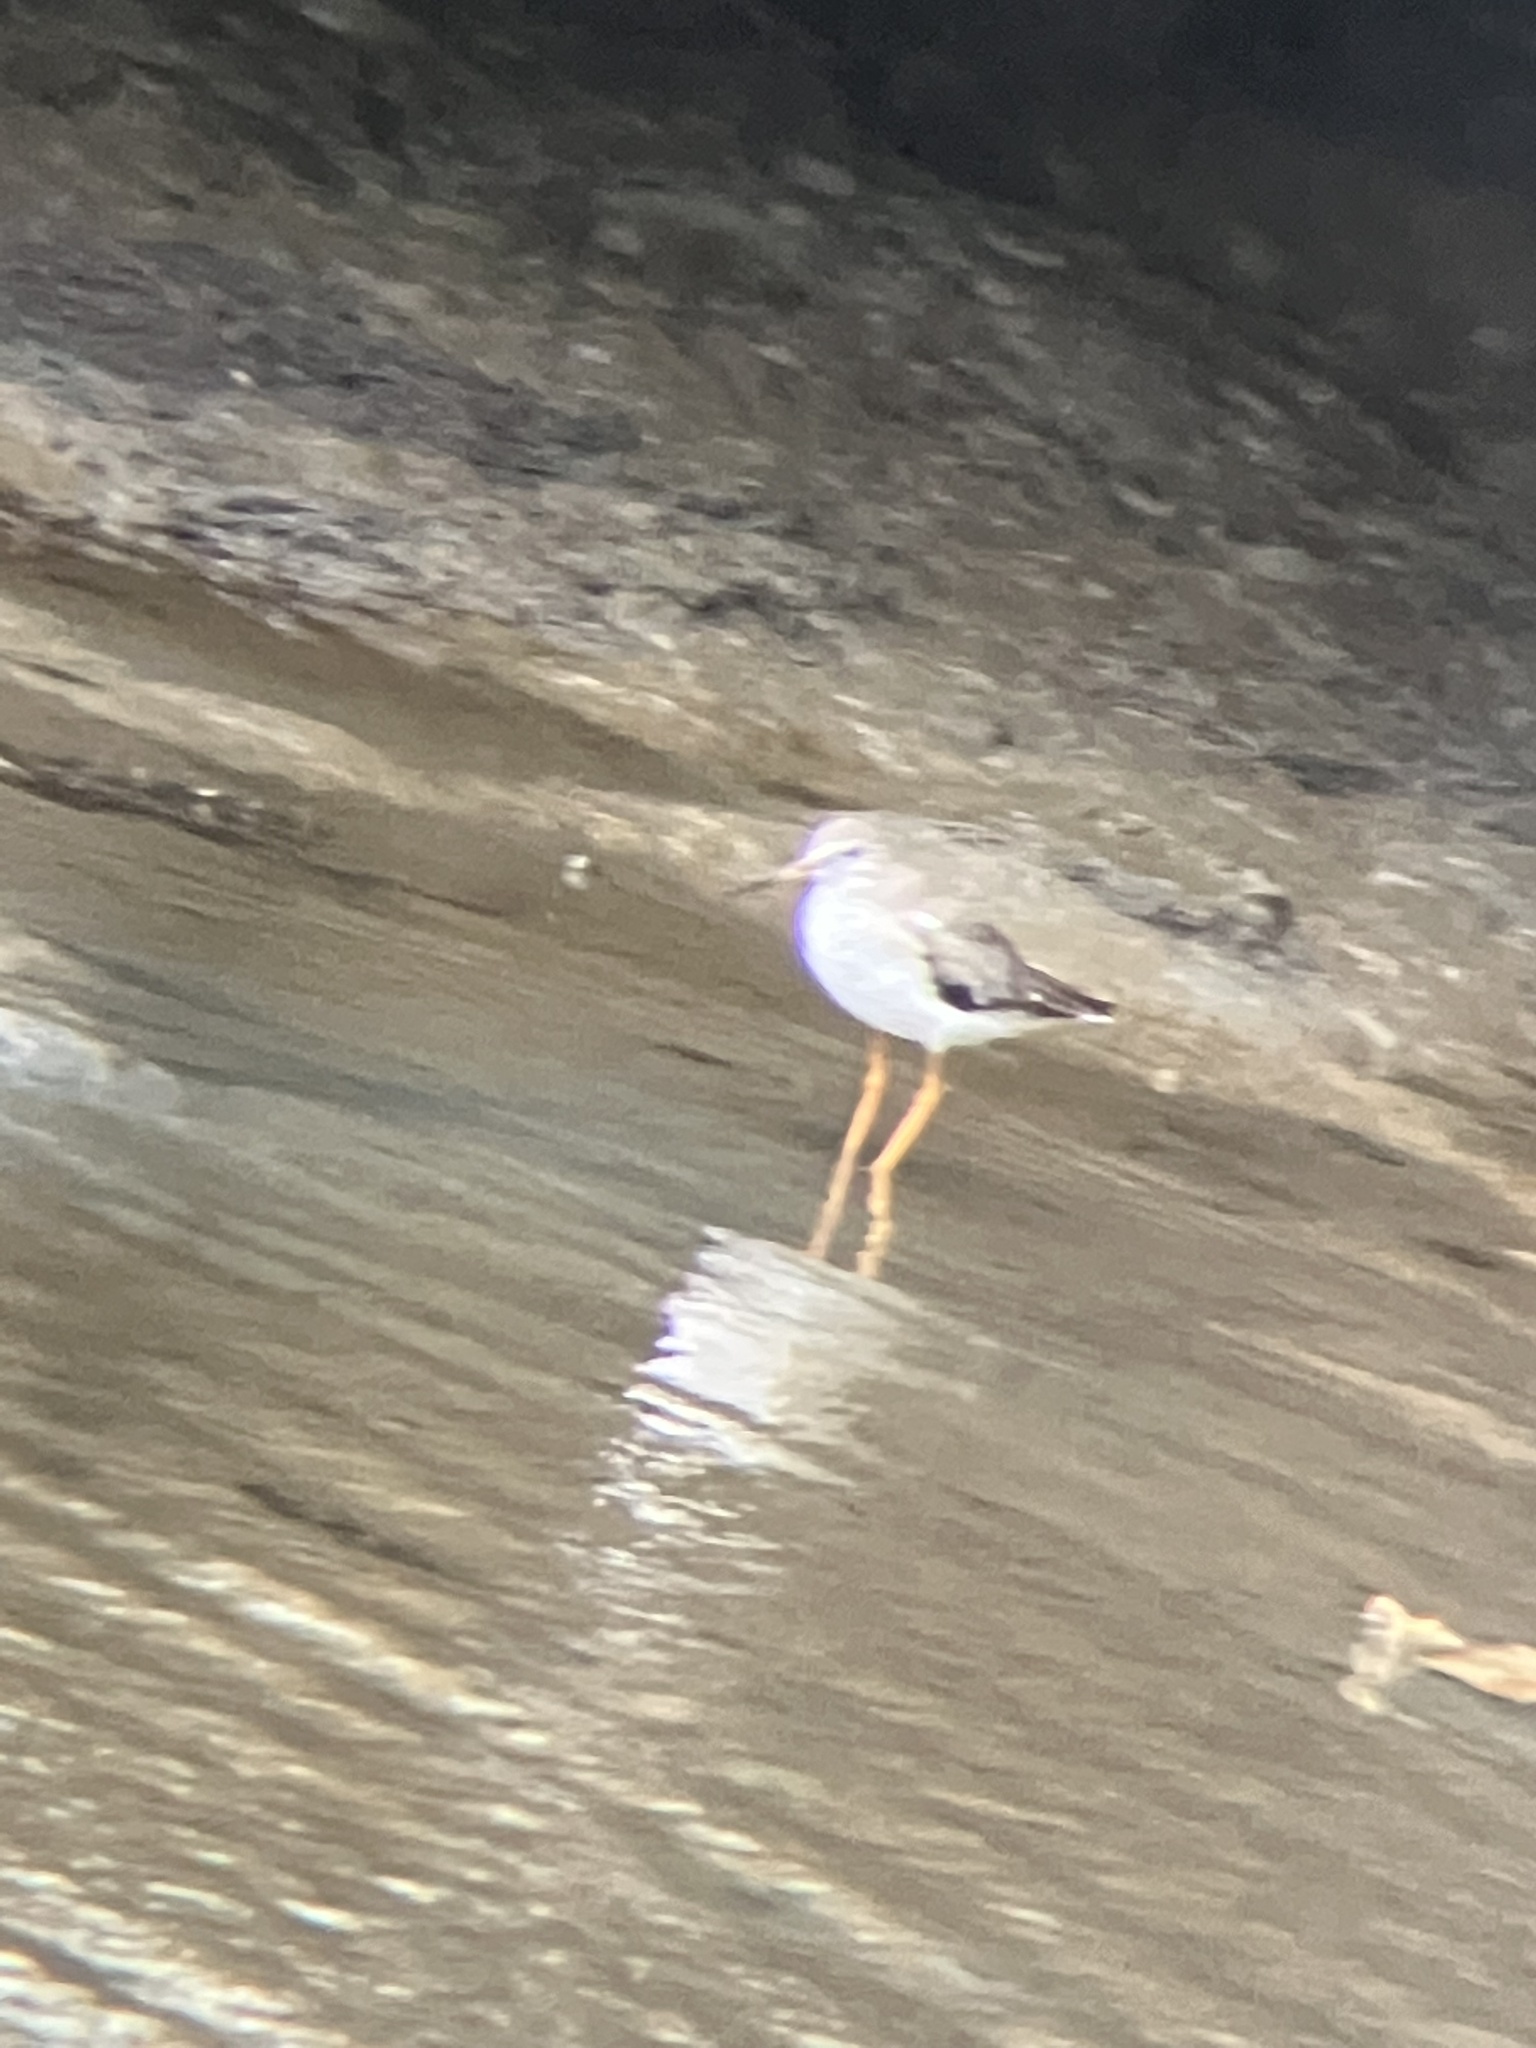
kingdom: Animalia
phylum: Chordata
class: Aves
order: Charadriiformes
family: Scolopacidae
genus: Tringa
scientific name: Tringa totanus
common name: Common redshank
